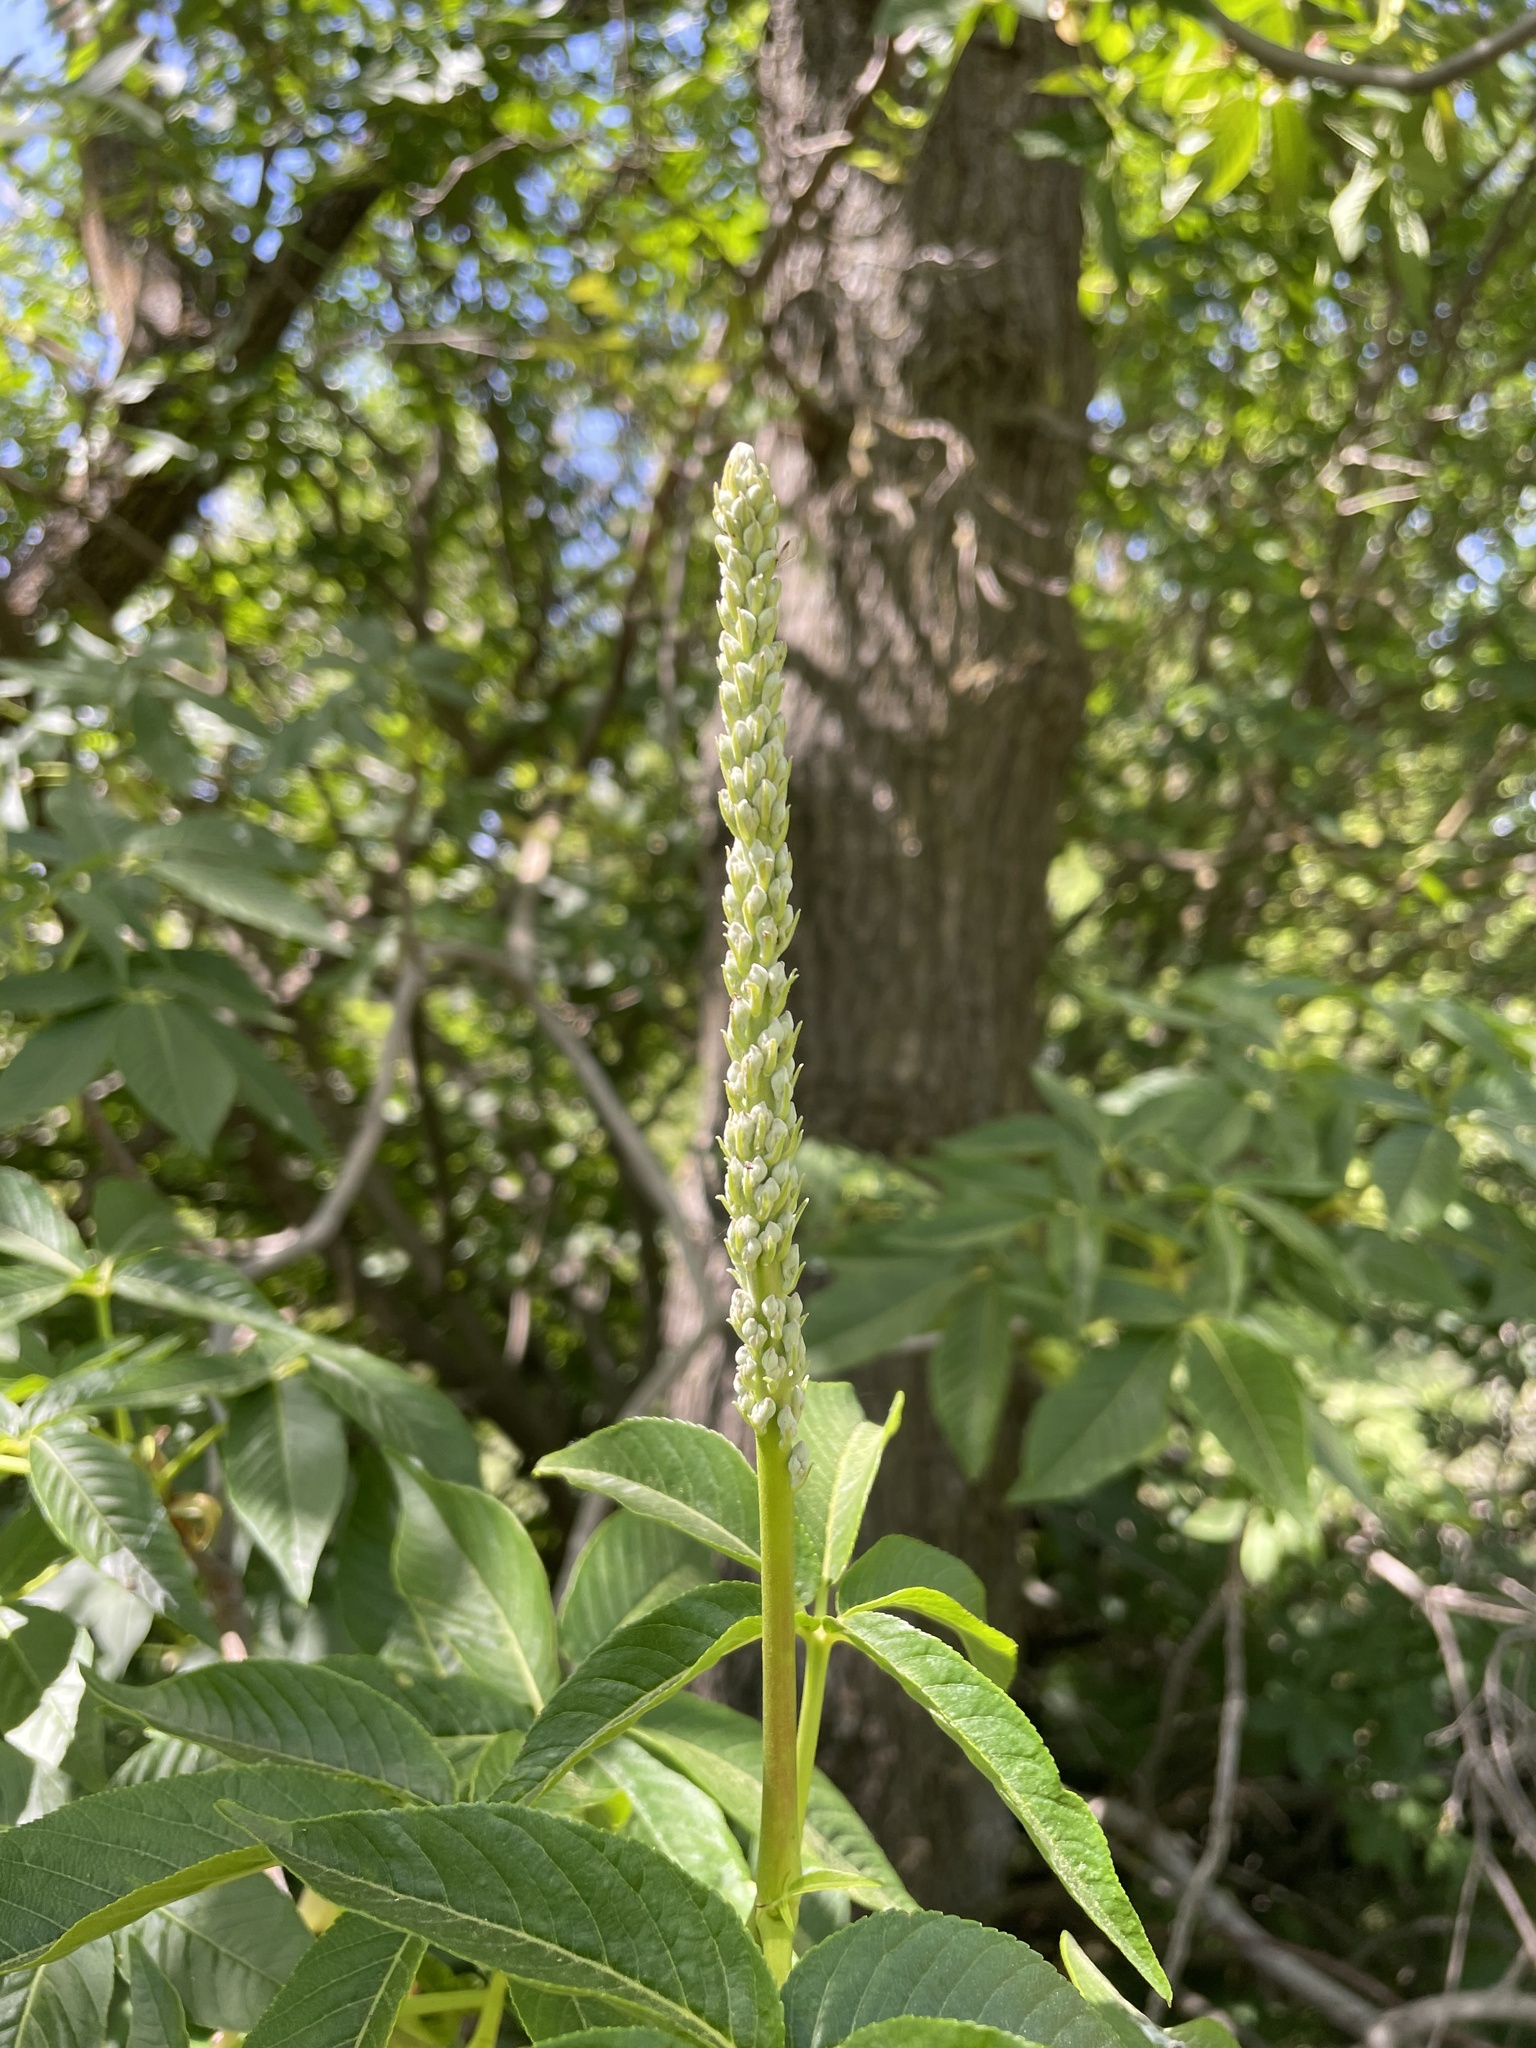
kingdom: Plantae
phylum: Tracheophyta
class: Magnoliopsida
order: Sapindales
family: Sapindaceae
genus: Aesculus
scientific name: Aesculus californica
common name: California buckeye
